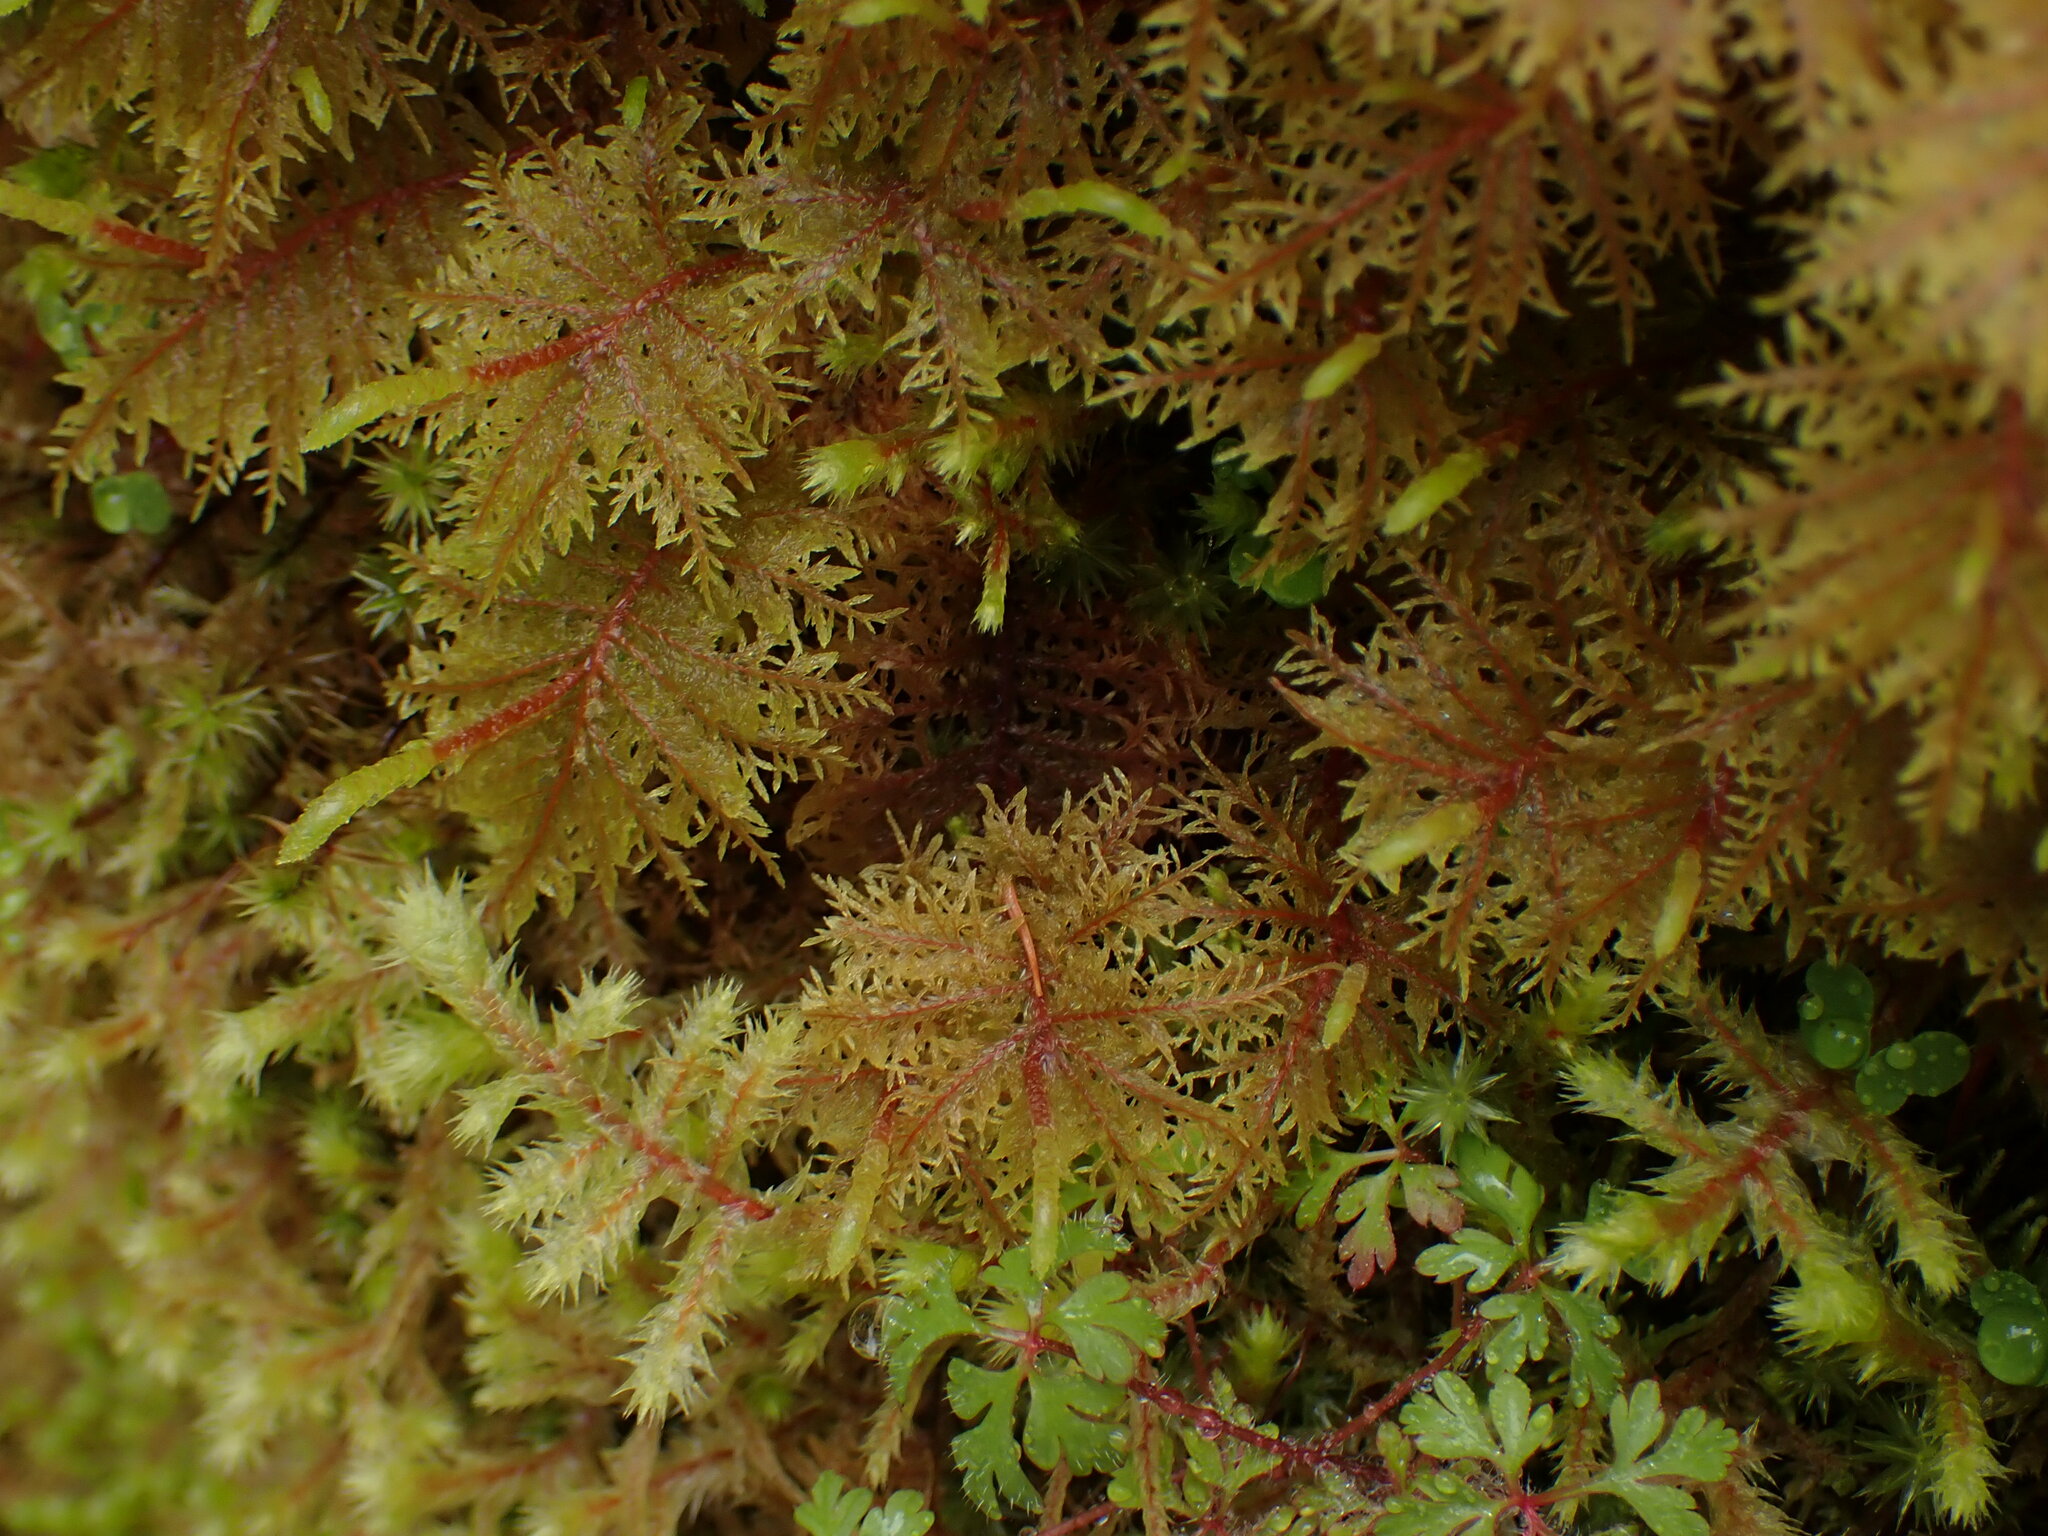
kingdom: Plantae
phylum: Bryophyta
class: Bryopsida
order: Hypnales
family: Hylocomiaceae
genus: Hylocomium
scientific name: Hylocomium splendens
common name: Stairstep moss
